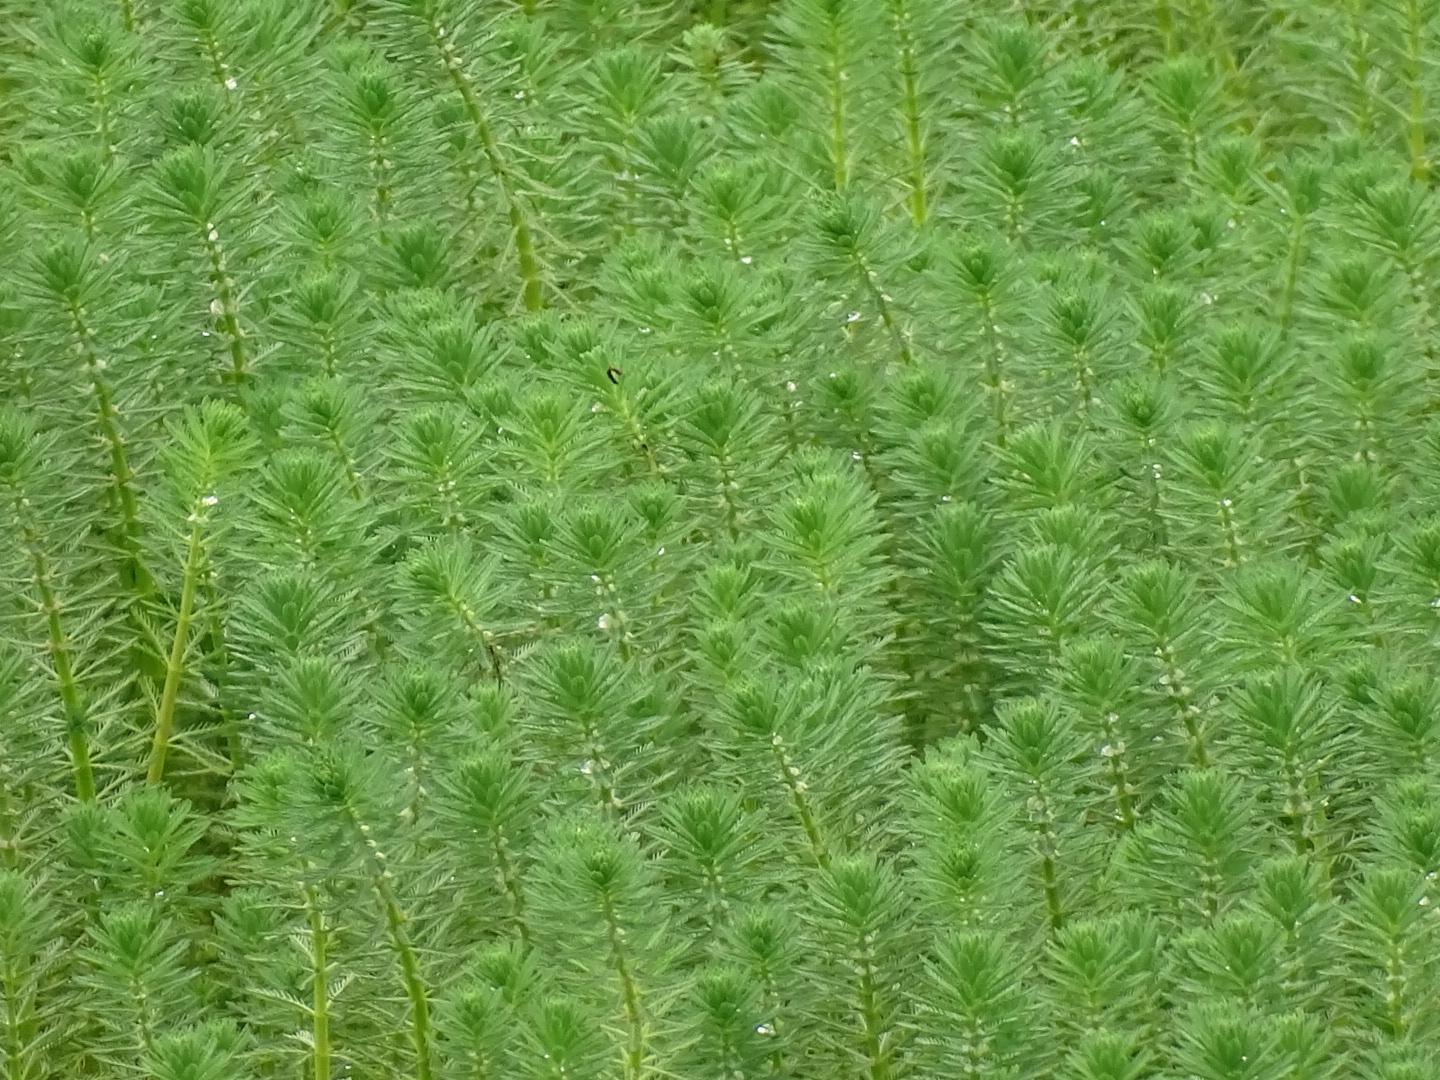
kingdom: Plantae
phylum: Tracheophyta
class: Magnoliopsida
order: Saxifragales
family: Haloragaceae
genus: Myriophyllum
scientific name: Myriophyllum aquaticum
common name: Parrot's feather
